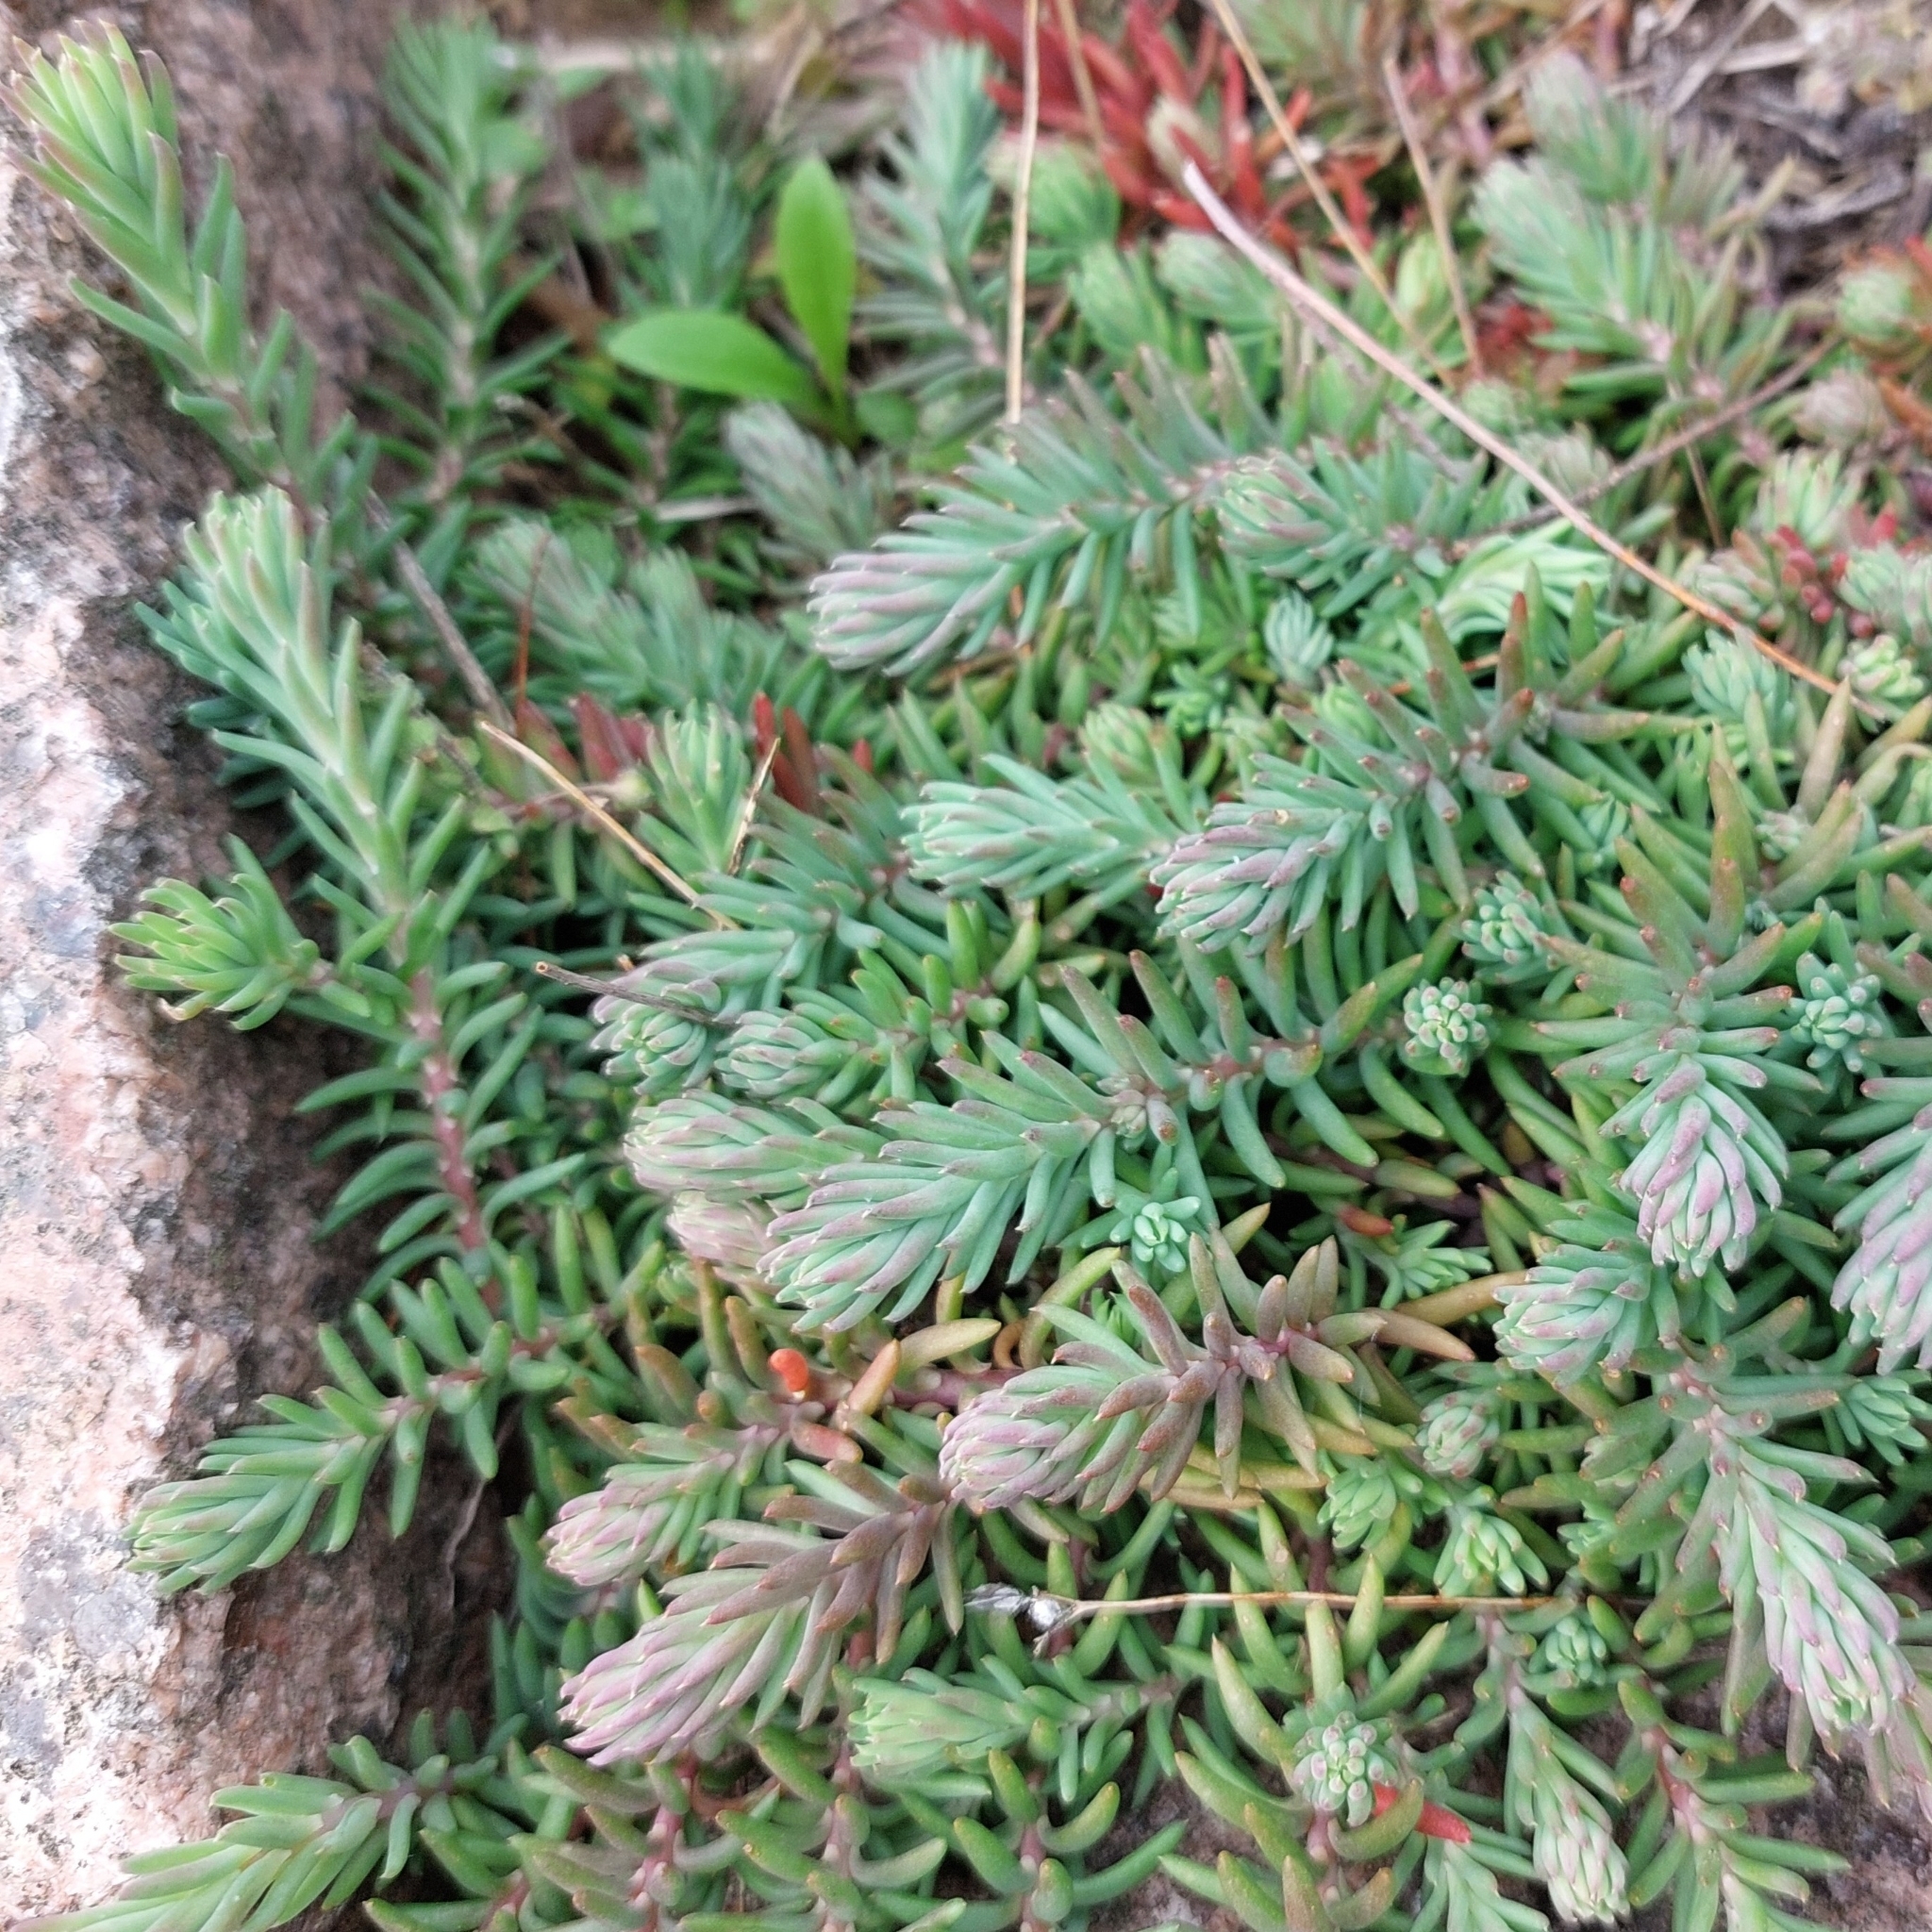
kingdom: Plantae
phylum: Tracheophyta
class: Magnoliopsida
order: Saxifragales
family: Crassulaceae
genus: Petrosedum
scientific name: Petrosedum rupestre
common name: Jenny's stonecrop
